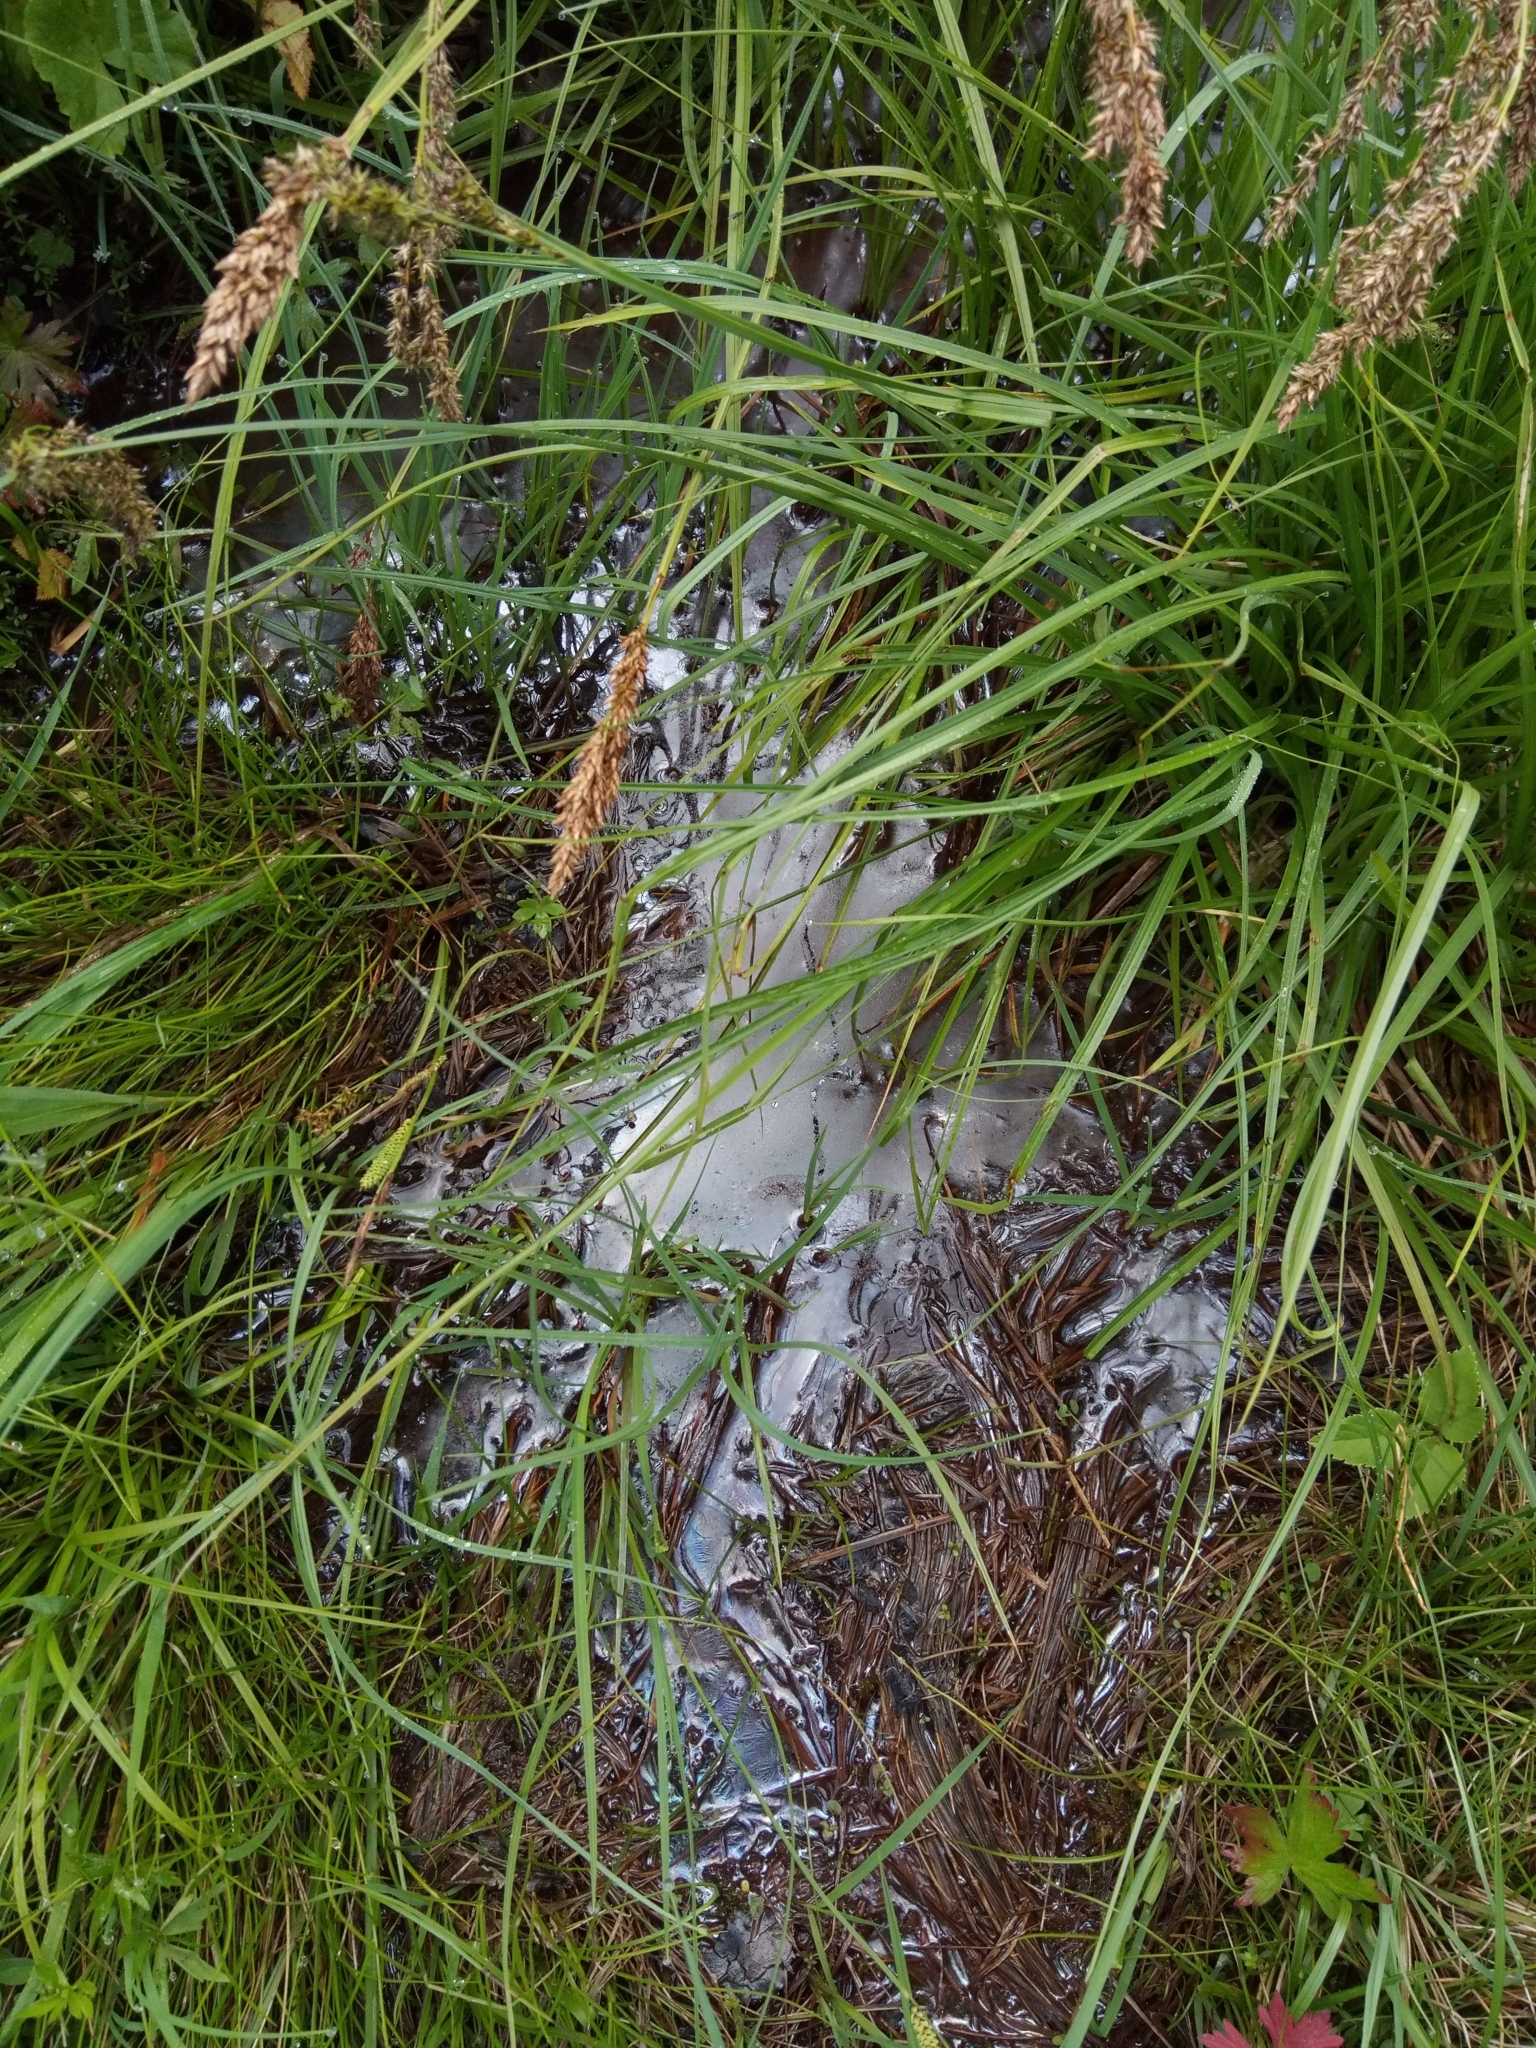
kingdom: Plantae
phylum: Tracheophyta
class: Liliopsida
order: Poales
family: Cyperaceae
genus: Carex
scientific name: Carex paniculata
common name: Greater tussock-sedge
